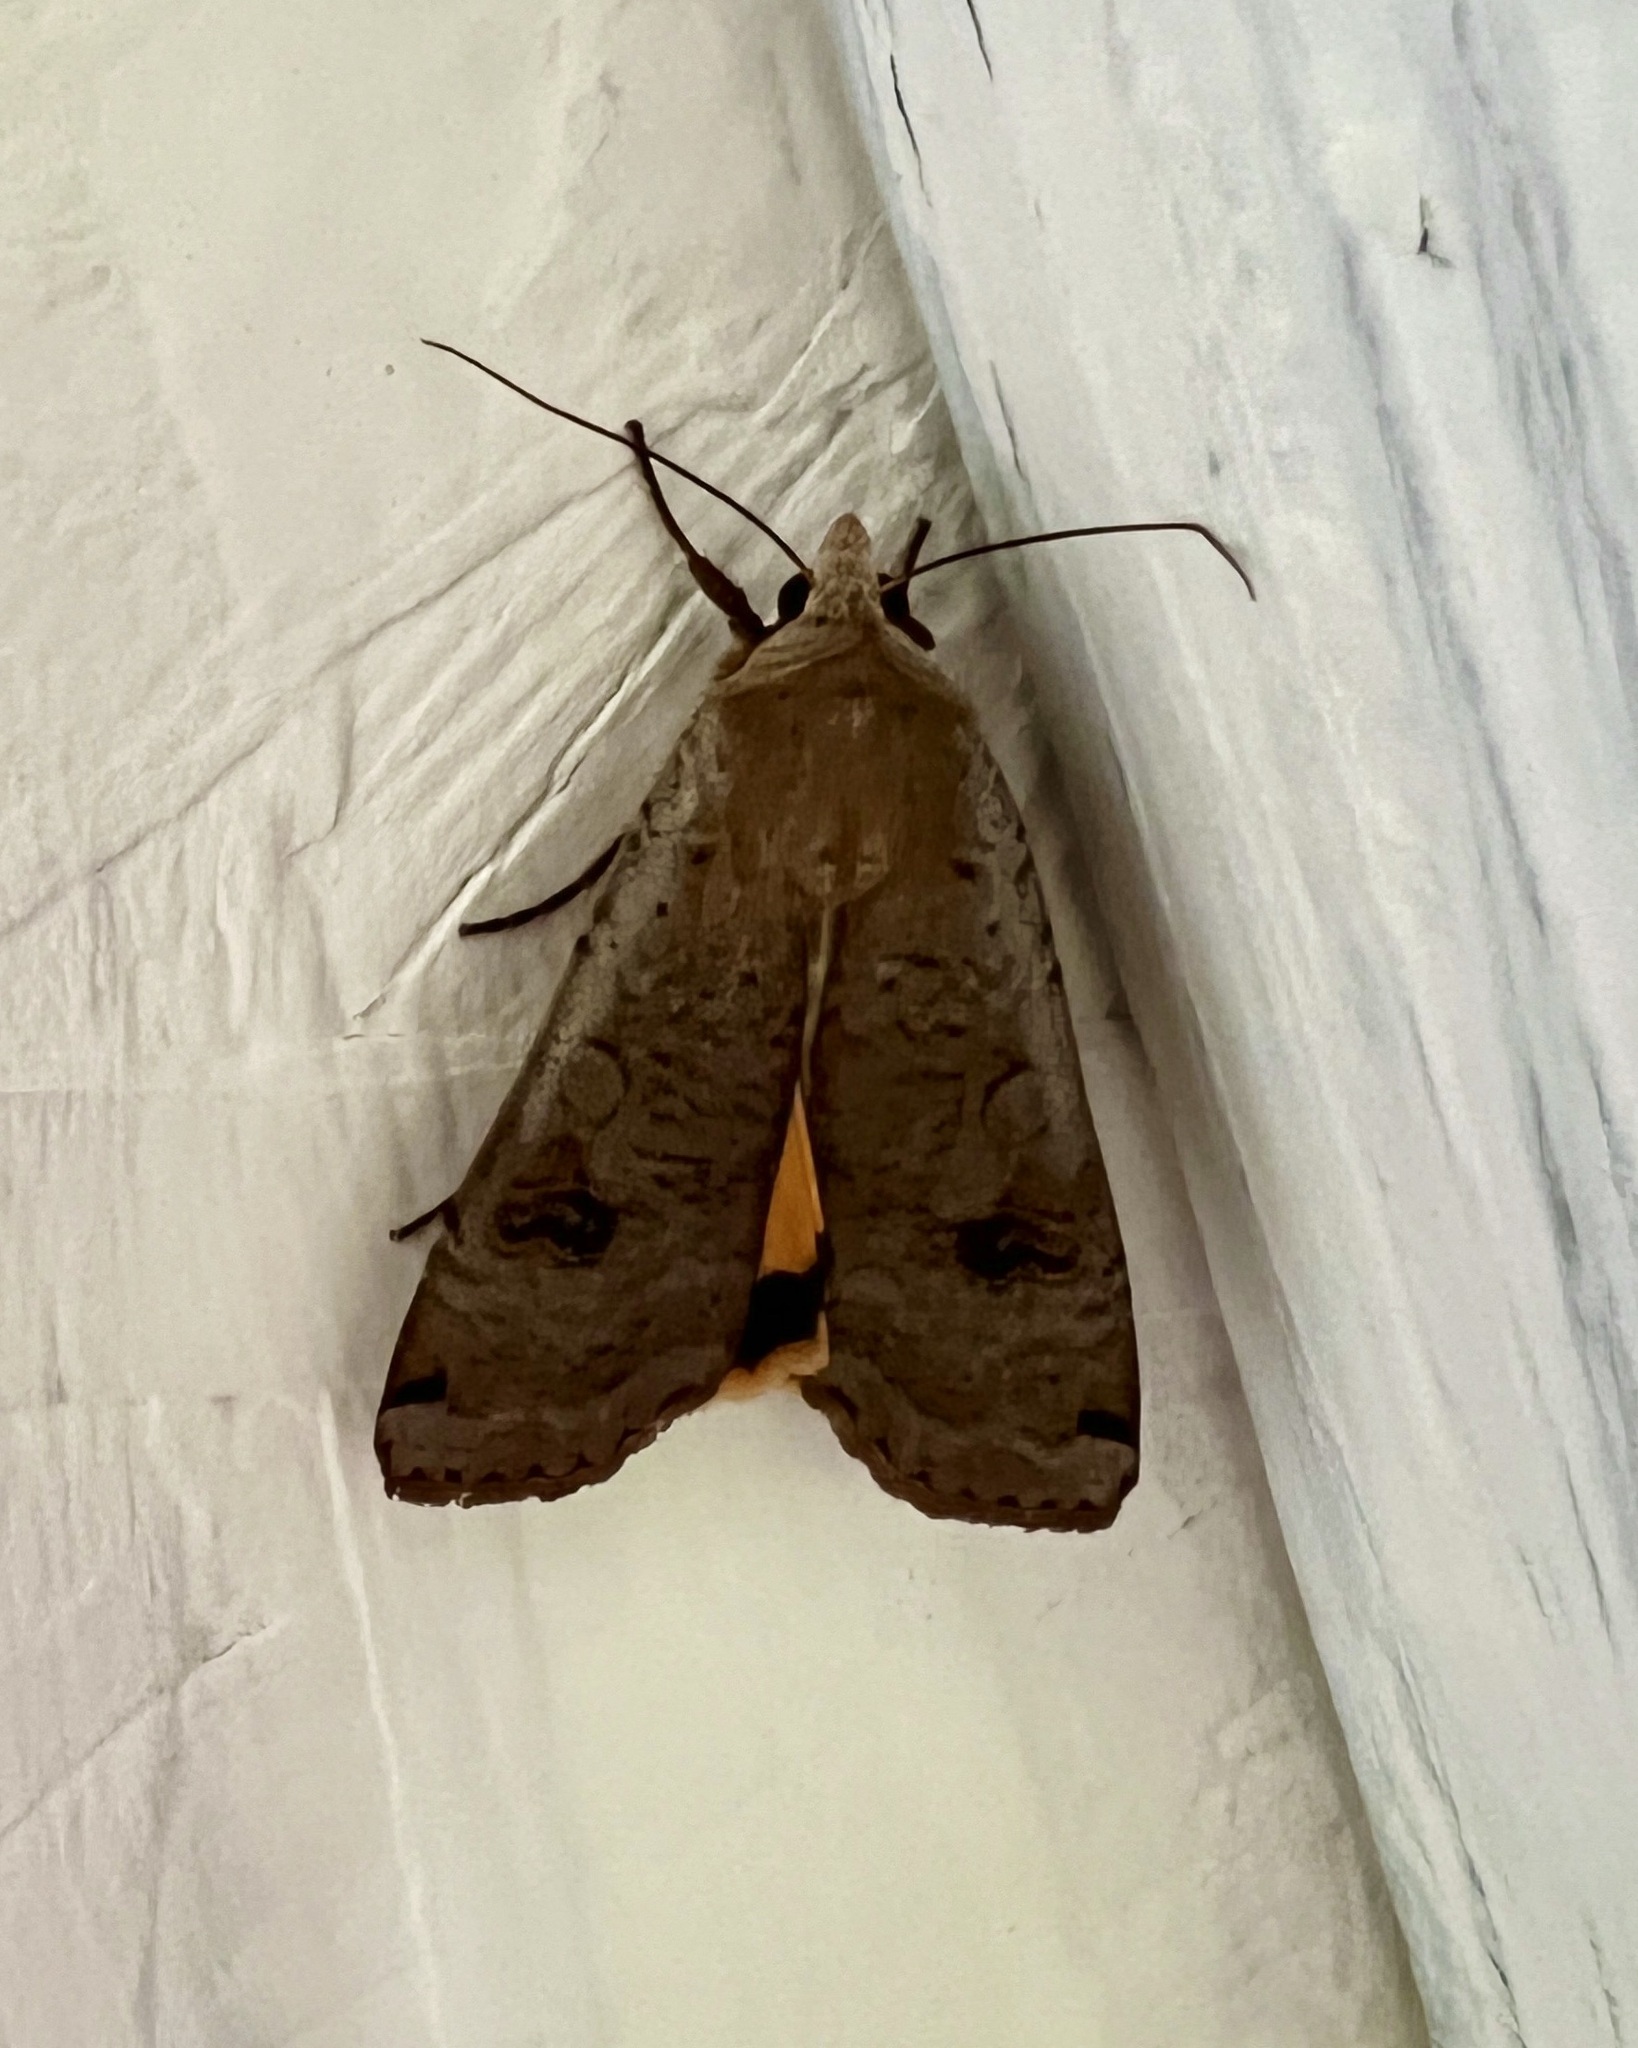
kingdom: Animalia
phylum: Arthropoda
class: Insecta
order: Lepidoptera
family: Noctuidae
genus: Noctua
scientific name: Noctua pronuba
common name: Large yellow underwing
